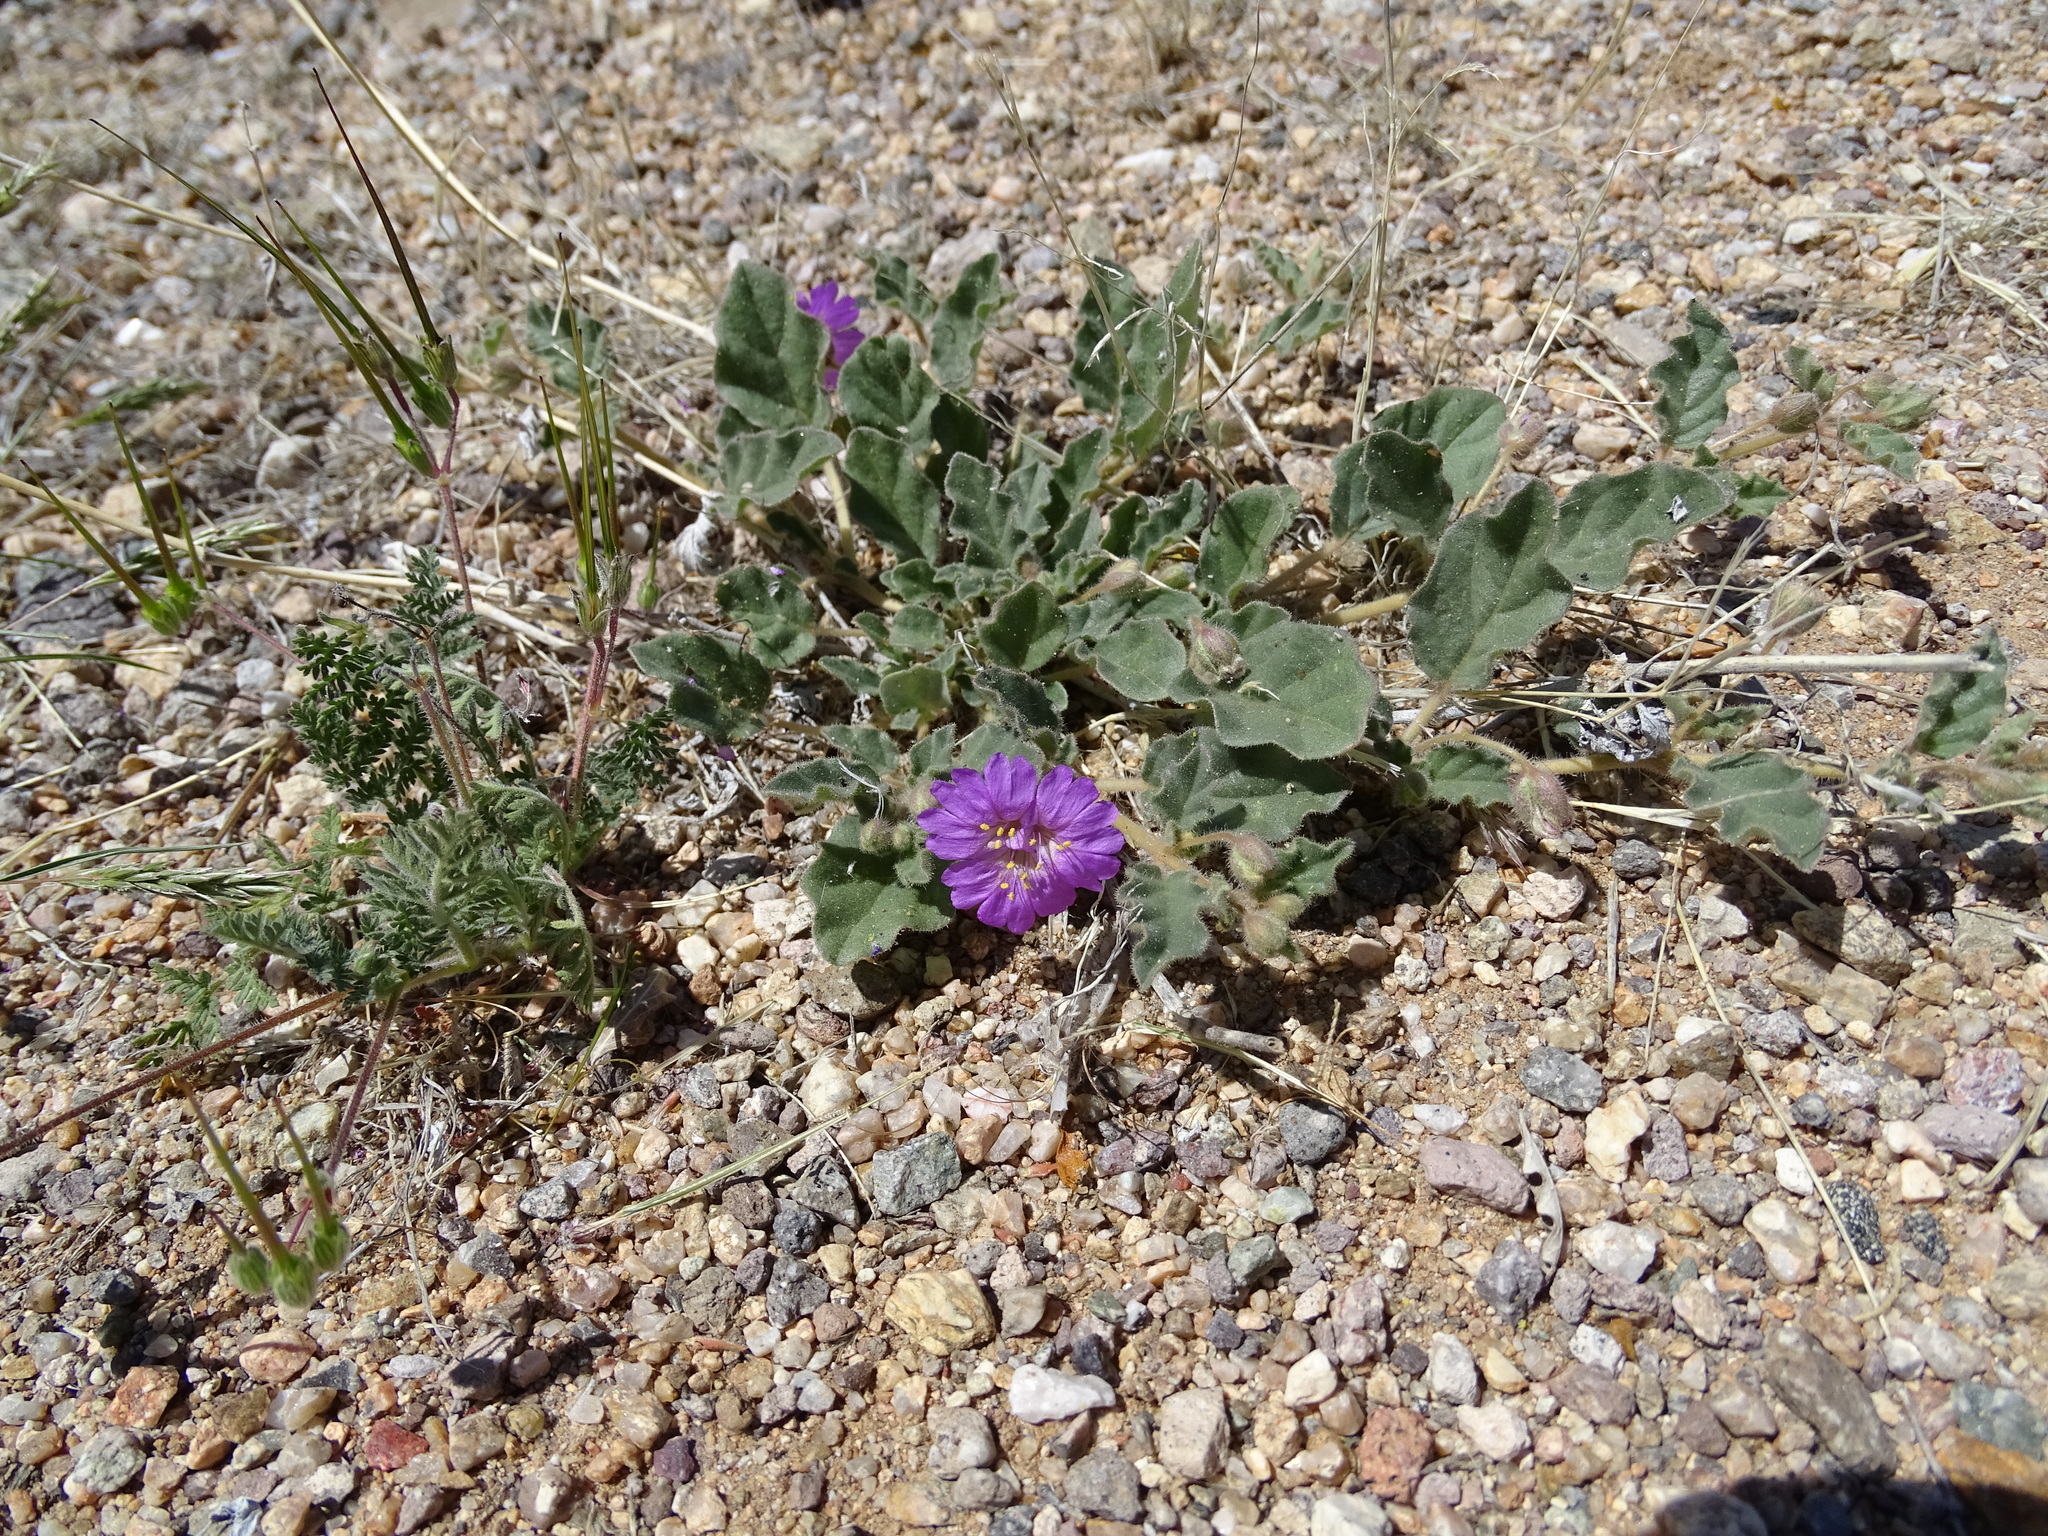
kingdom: Plantae
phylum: Tracheophyta
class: Magnoliopsida
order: Caryophyllales
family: Nyctaginaceae
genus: Allionia
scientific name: Allionia incarnata
